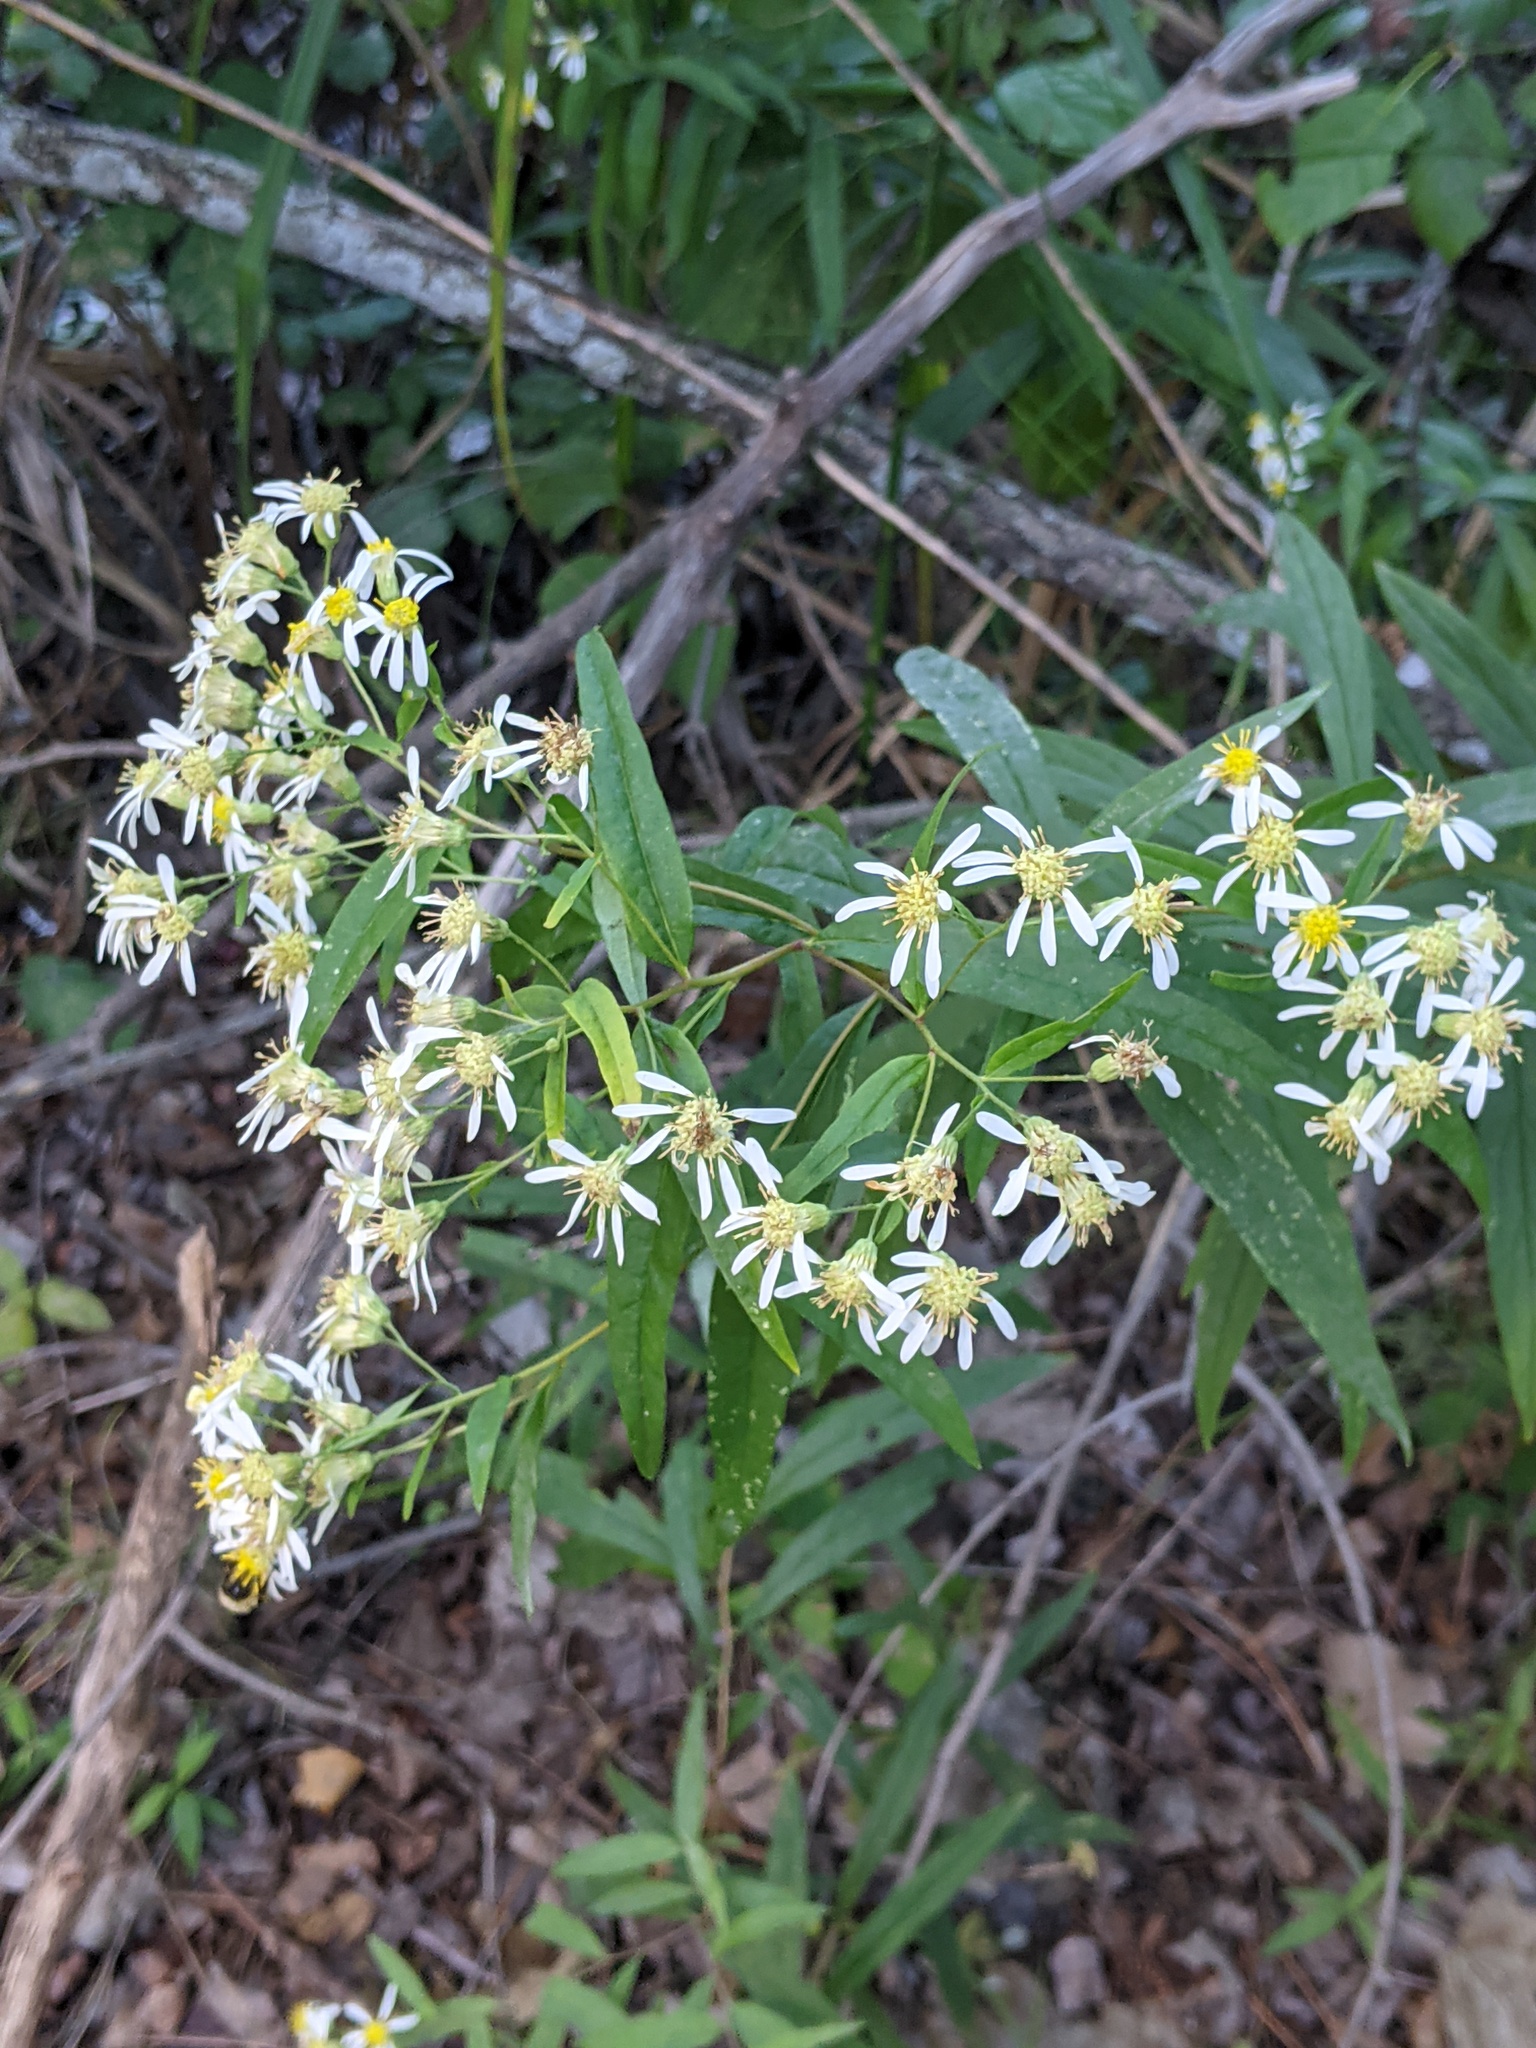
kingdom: Plantae
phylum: Tracheophyta
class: Magnoliopsida
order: Asterales
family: Asteraceae
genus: Doellingeria
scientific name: Doellingeria umbellata
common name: Flat-top white aster
